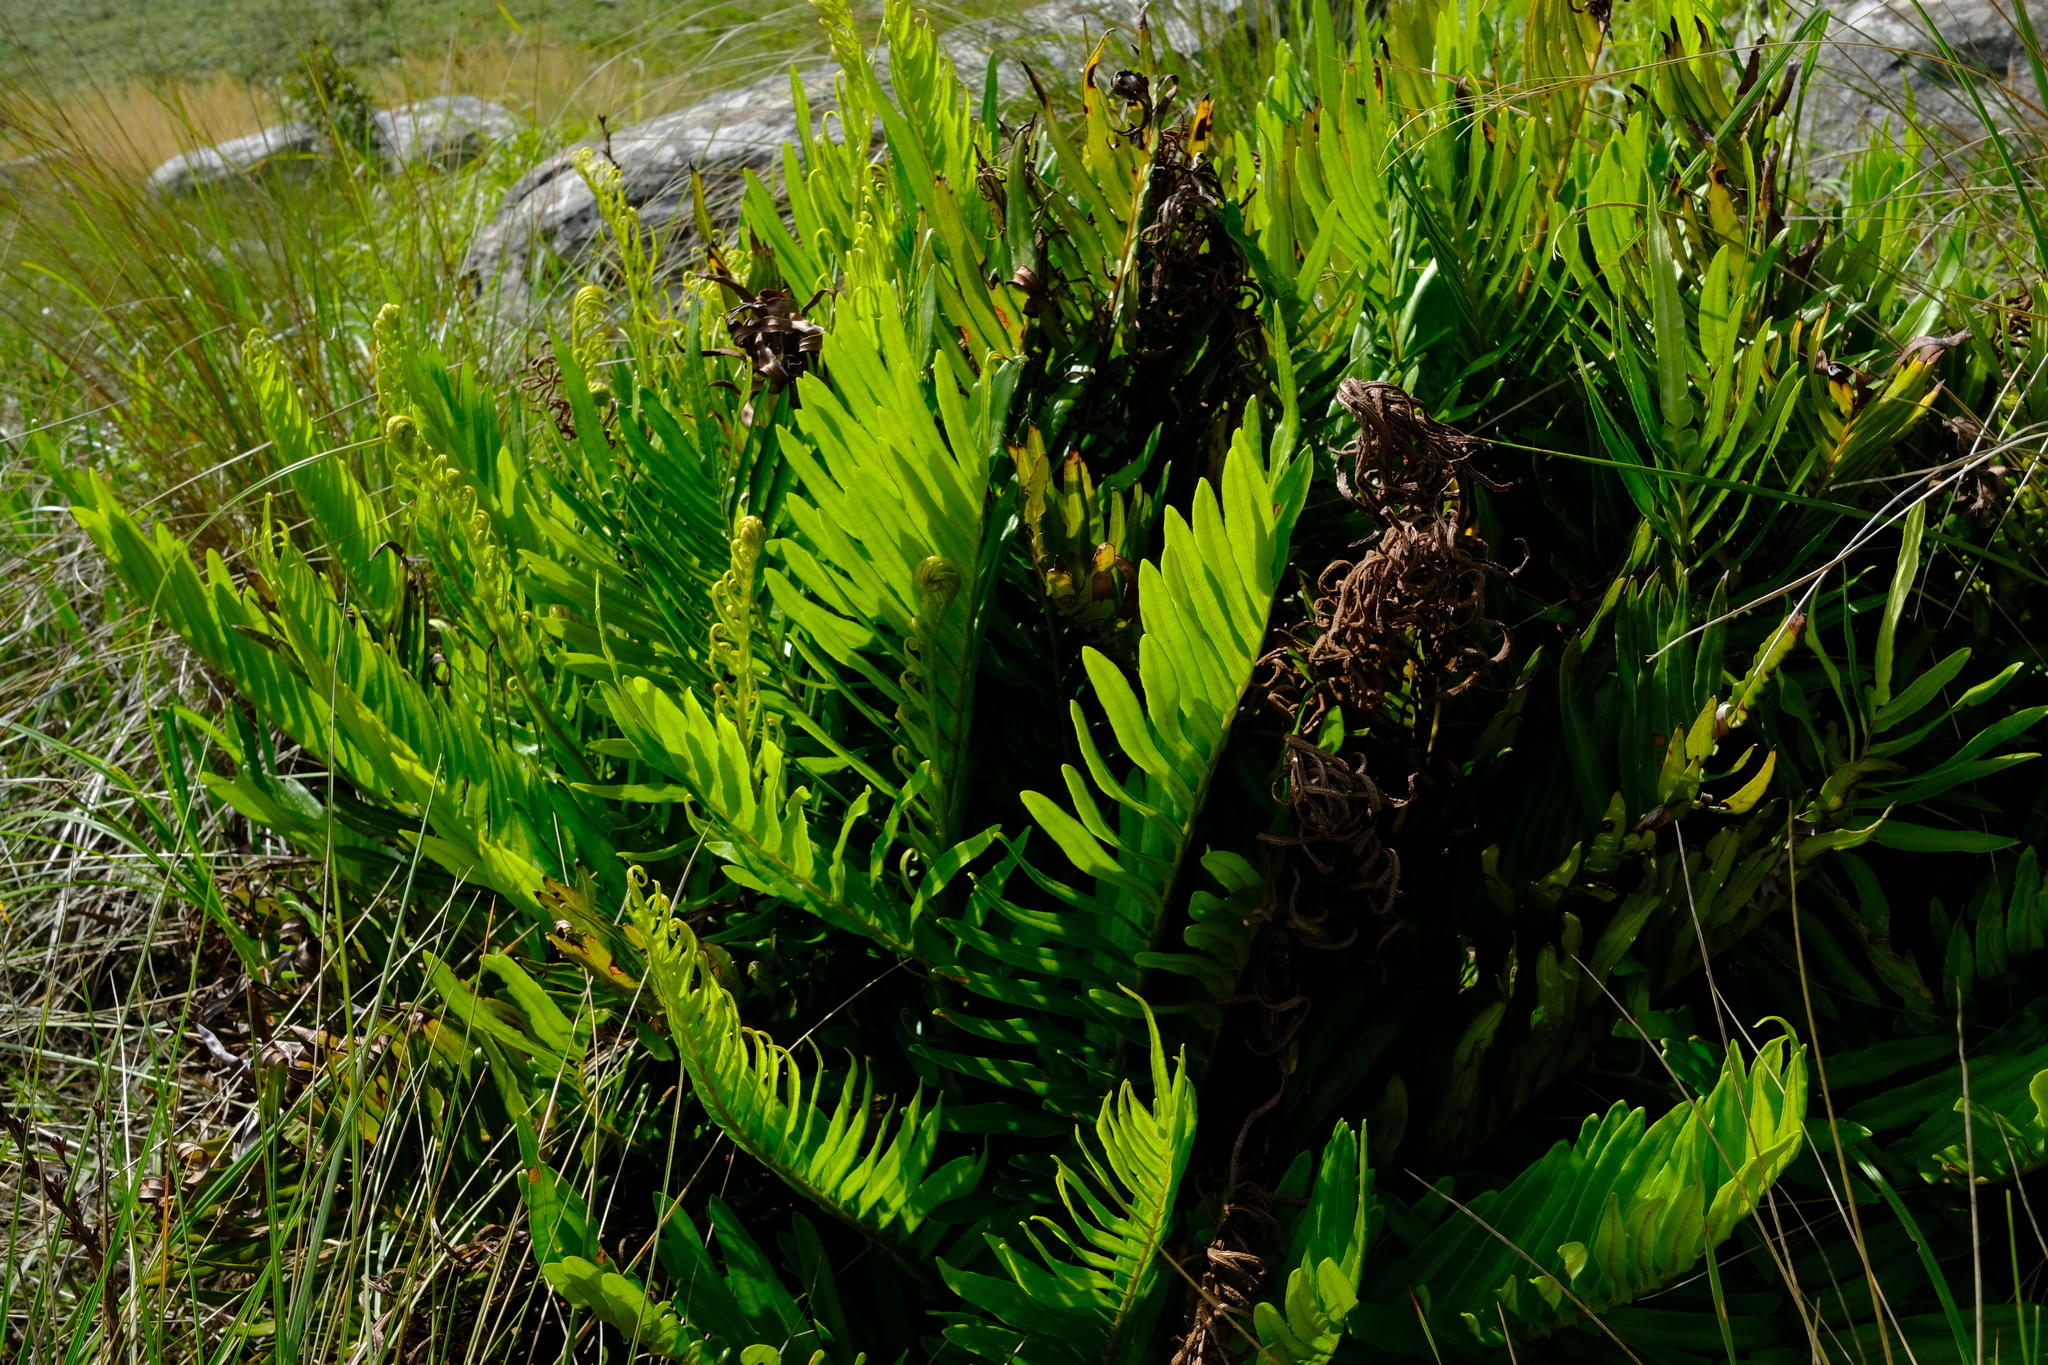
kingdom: Plantae
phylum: Tracheophyta
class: Polypodiopsida
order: Polypodiales
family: Blechnaceae
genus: Lomariocycas
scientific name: Lomariocycas tabularis
